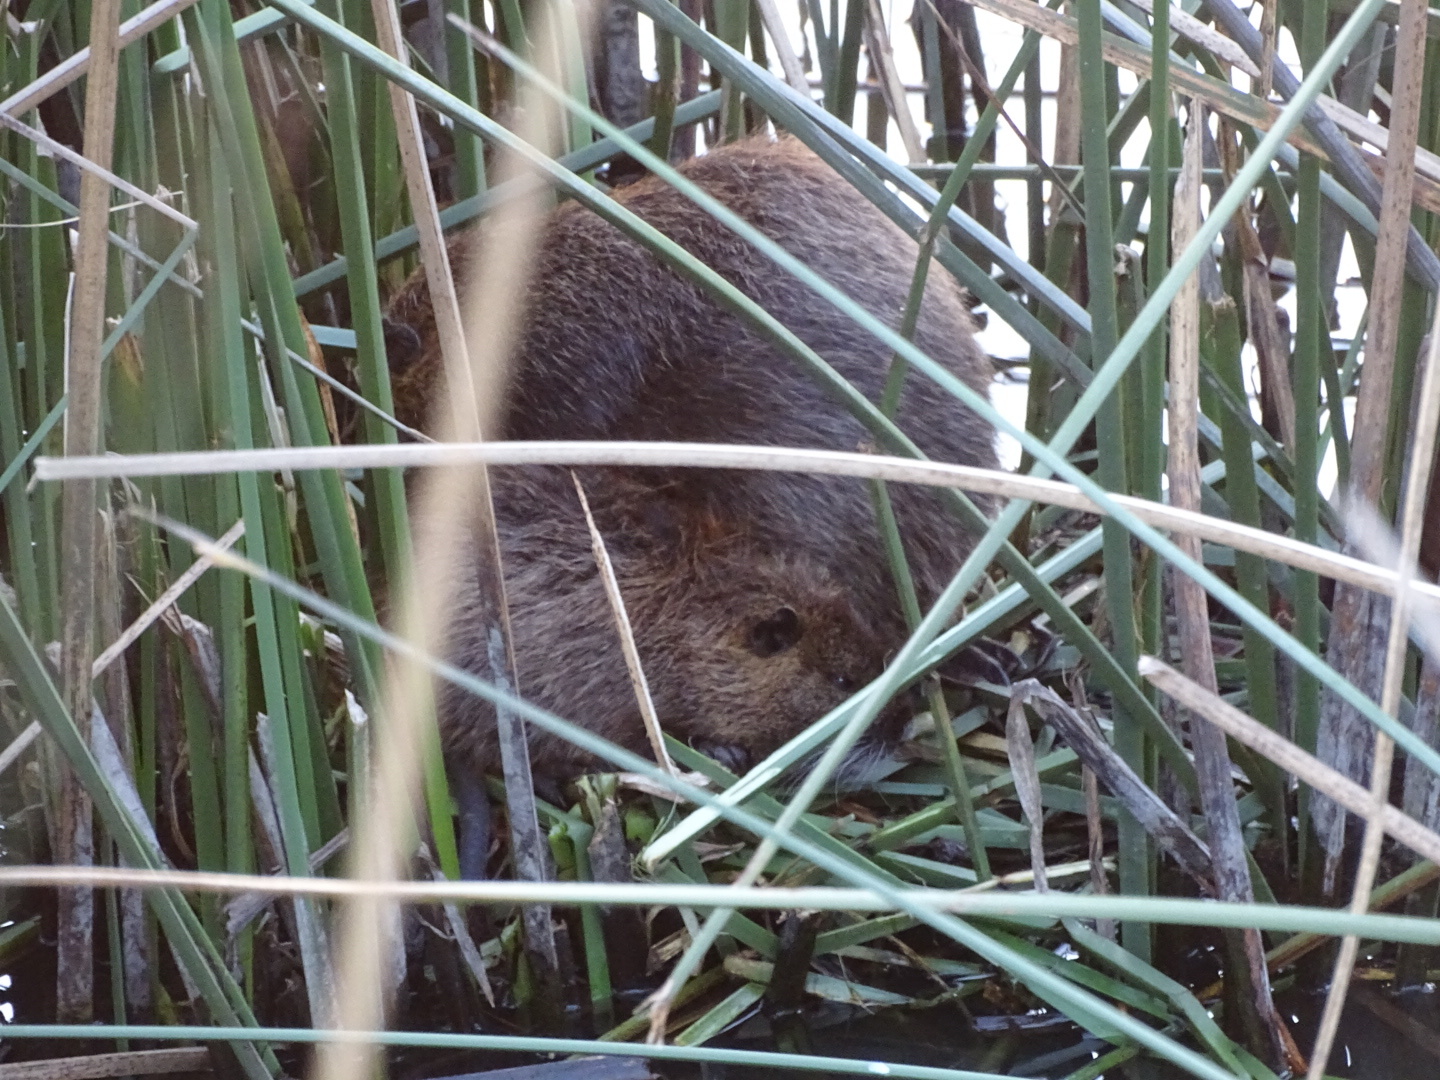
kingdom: Animalia
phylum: Chordata
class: Mammalia
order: Rodentia
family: Myocastoridae
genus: Myocastor
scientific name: Myocastor coypus
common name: Coypu
